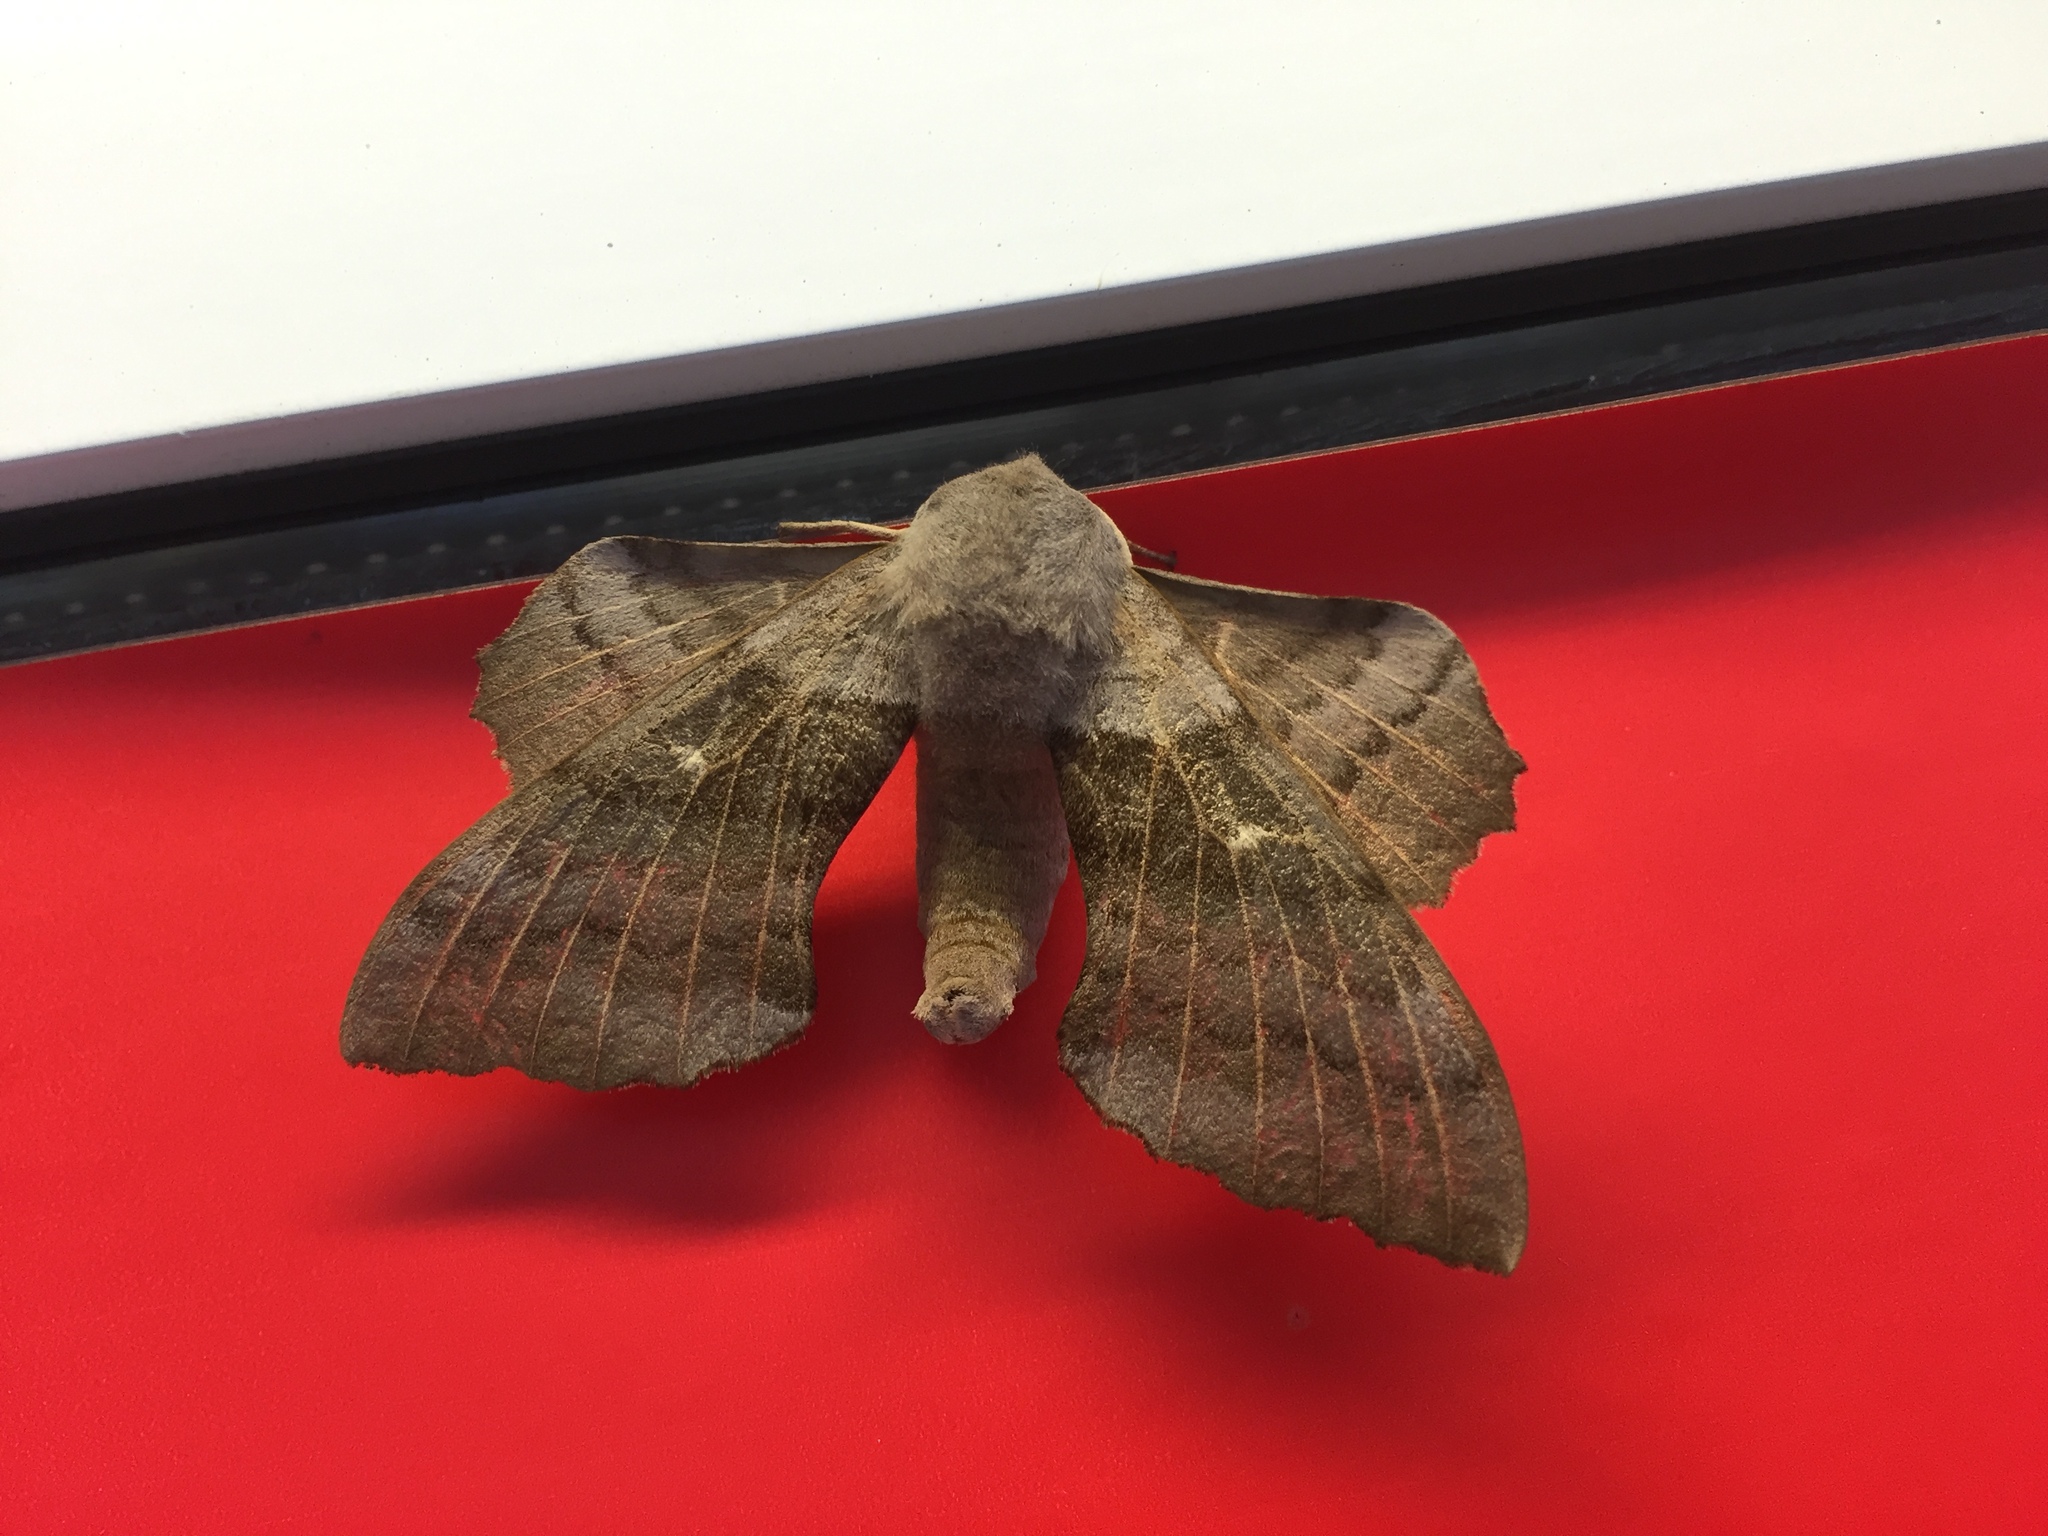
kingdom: Animalia
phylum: Arthropoda
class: Insecta
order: Lepidoptera
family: Sphingidae
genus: Laothoe
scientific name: Laothoe populi
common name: Poplar hawk-moth
